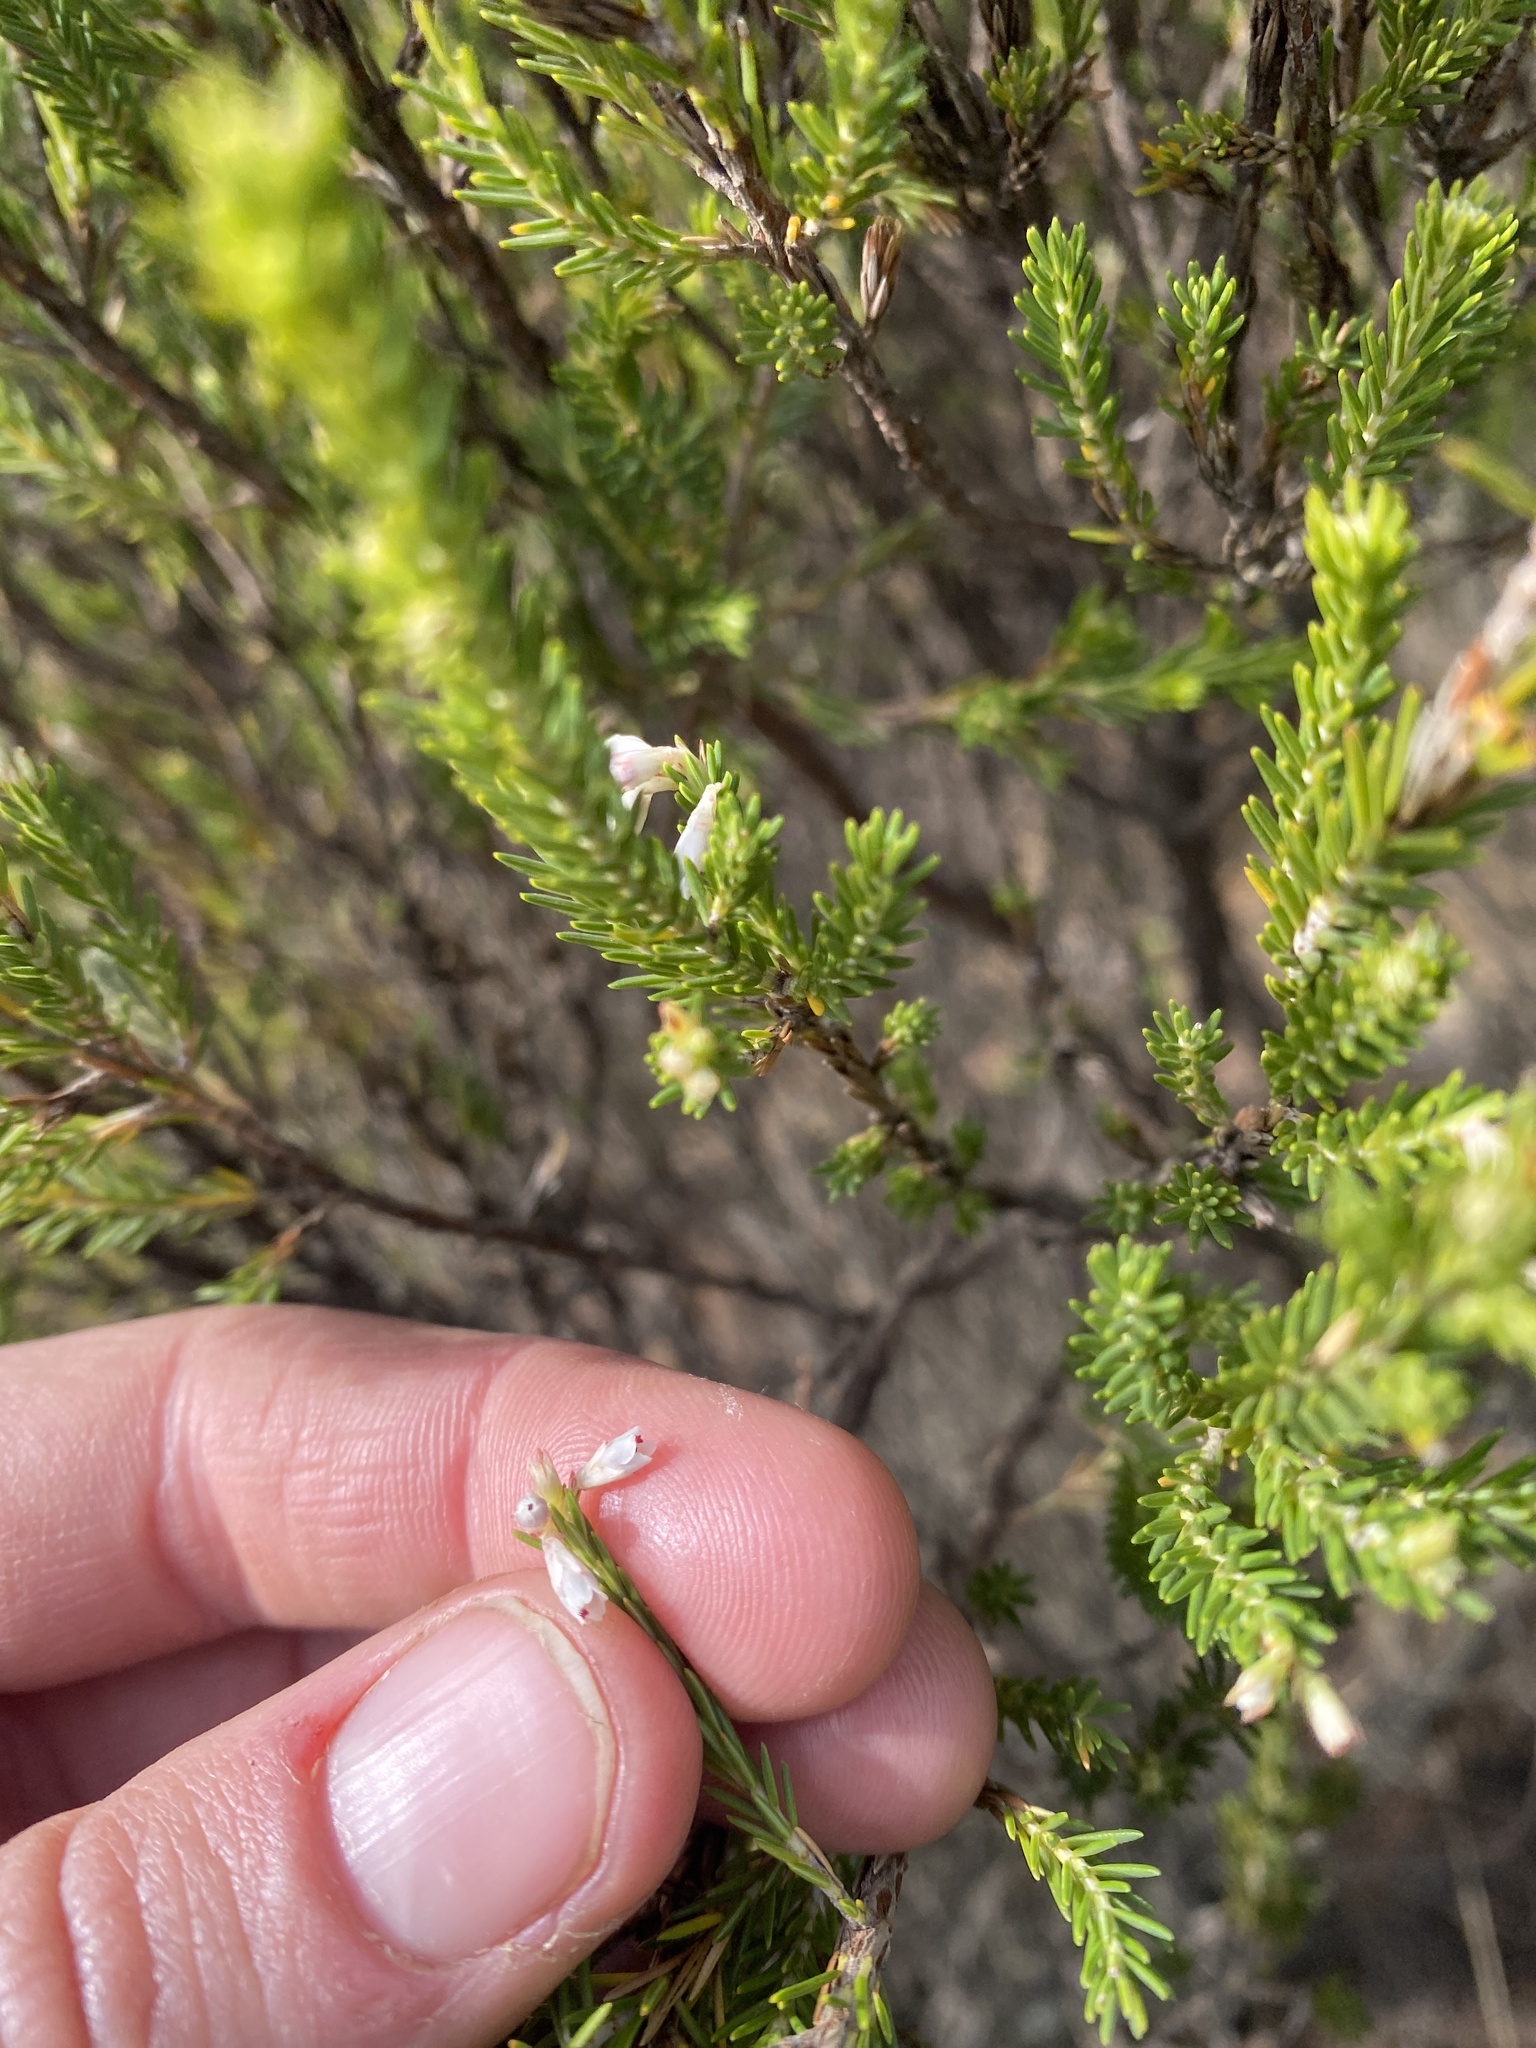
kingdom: Plantae
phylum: Tracheophyta
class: Magnoliopsida
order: Ericales
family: Ericaceae
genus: Erica
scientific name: Erica caffrorum
